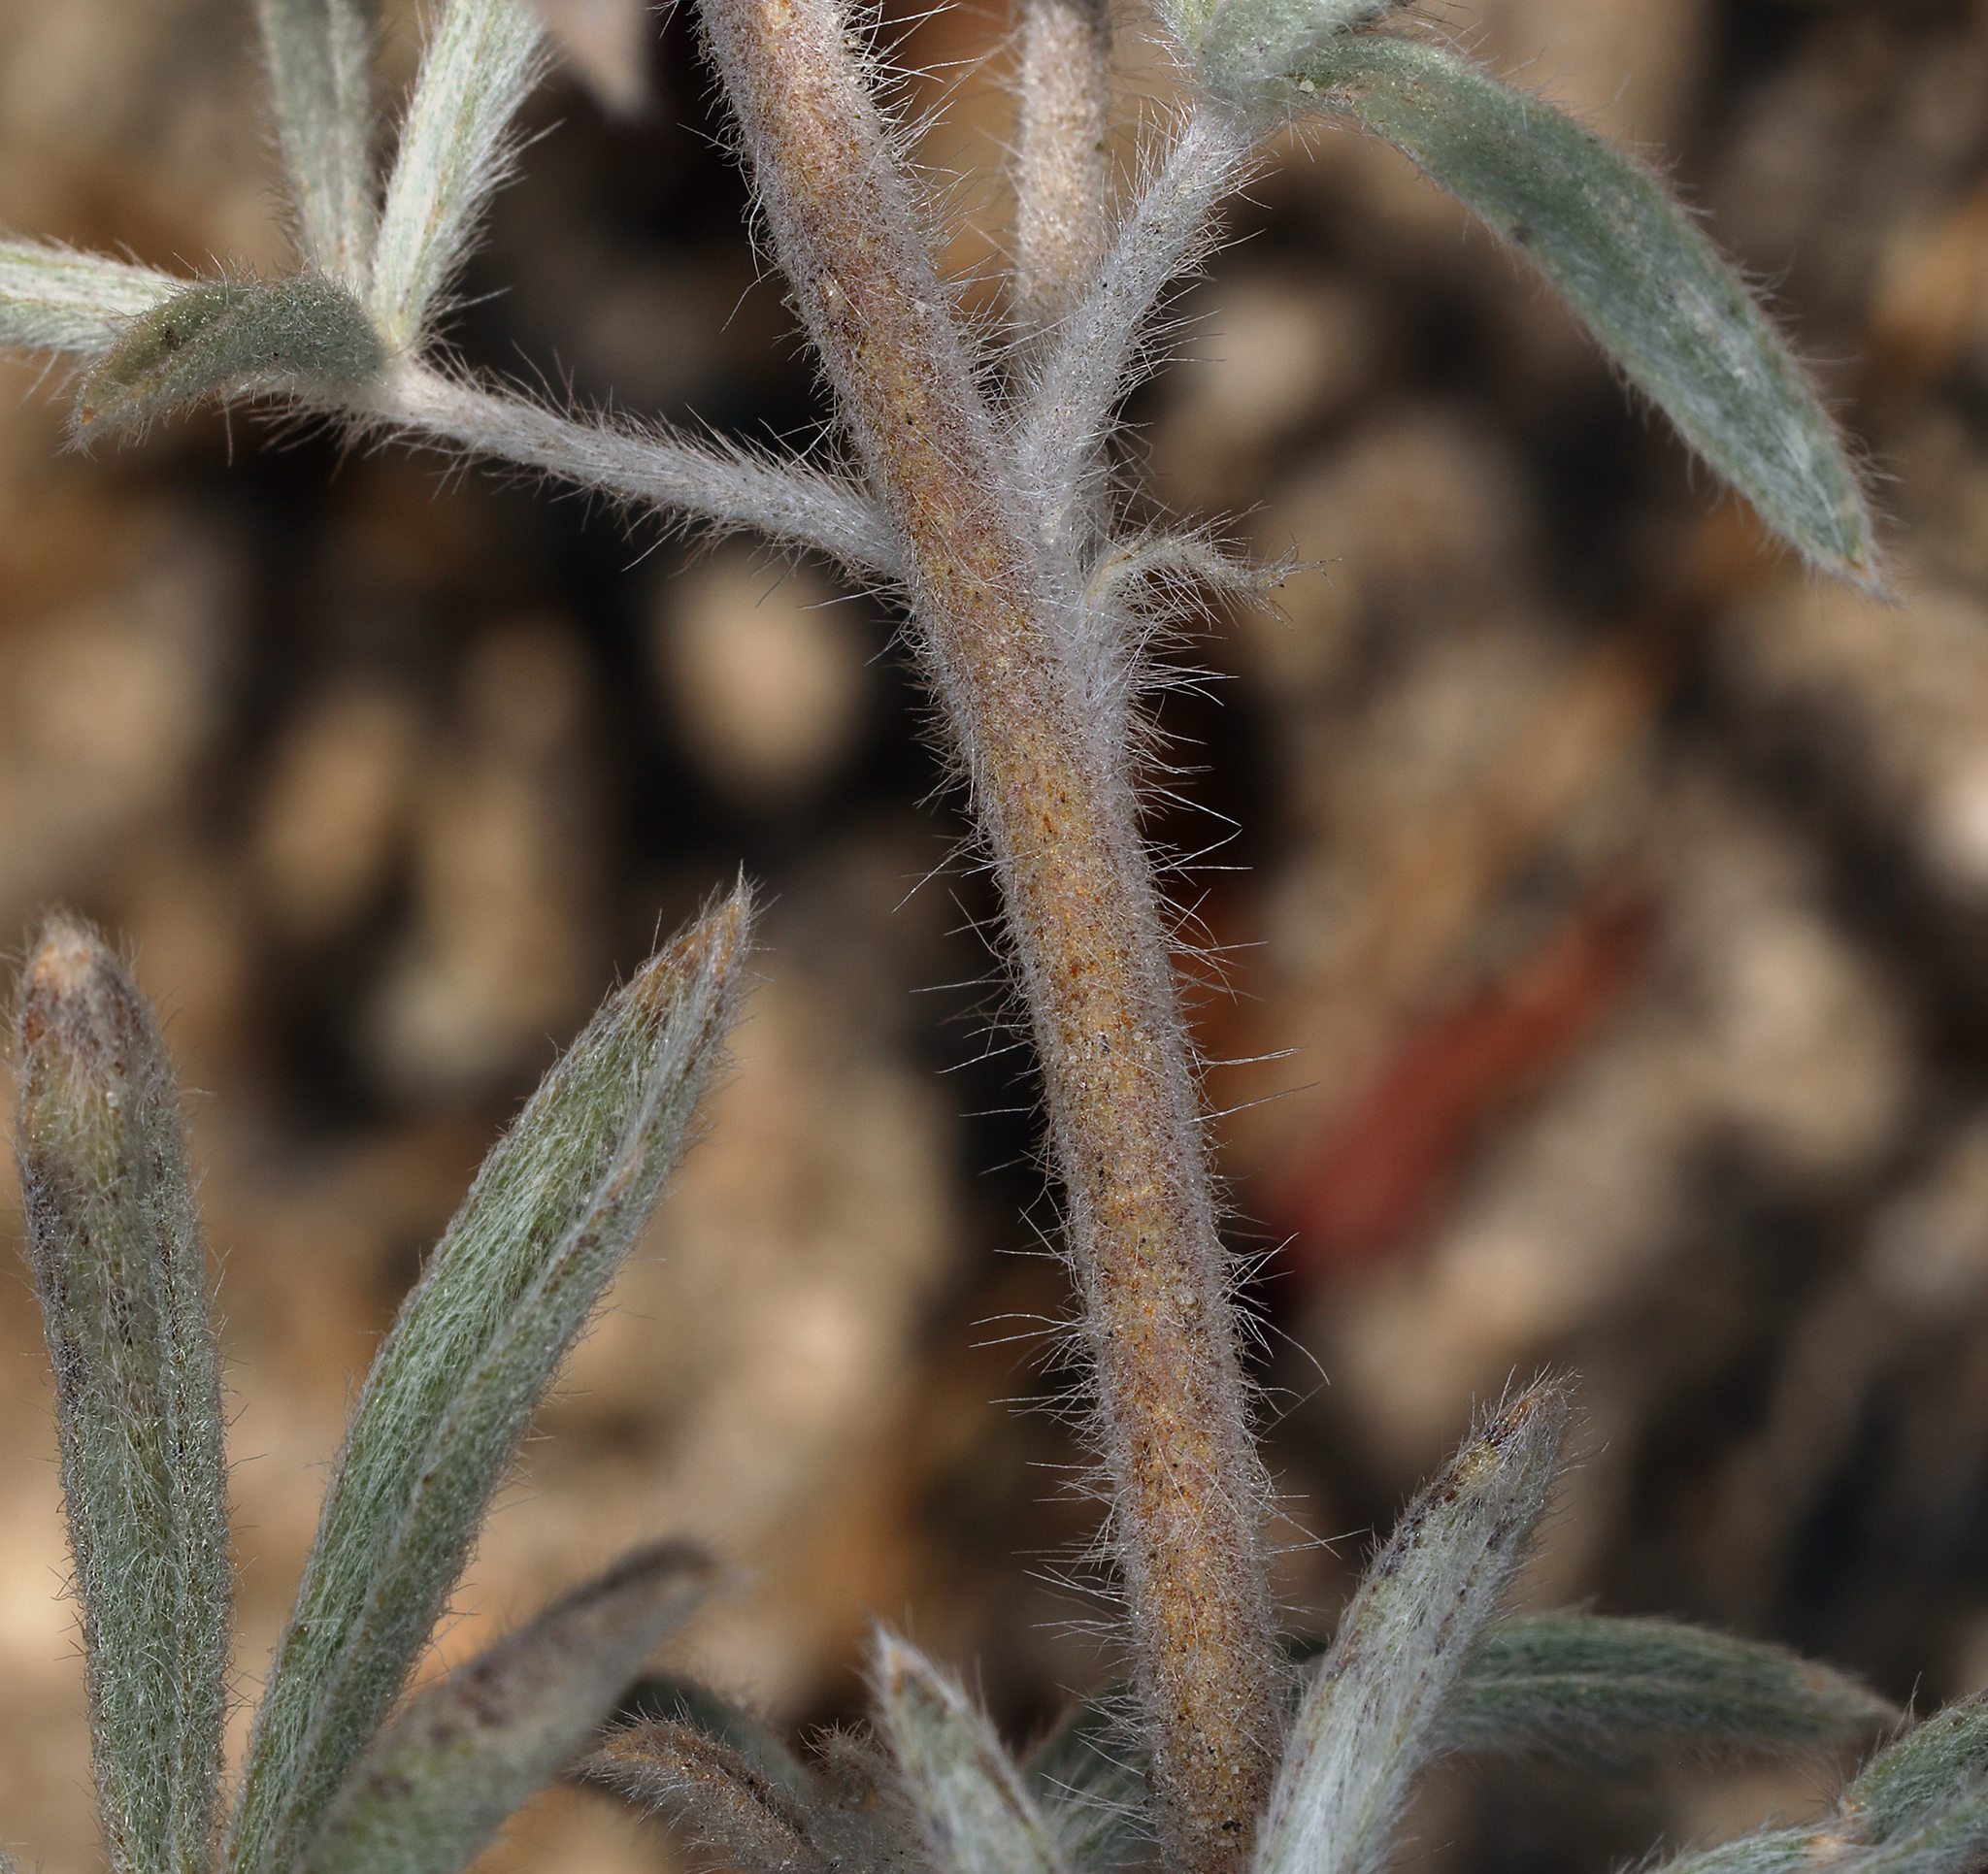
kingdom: Plantae
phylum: Tracheophyta
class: Magnoliopsida
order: Fabales
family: Fabaceae
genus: Lupinus
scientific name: Lupinus padre-crowleyi
